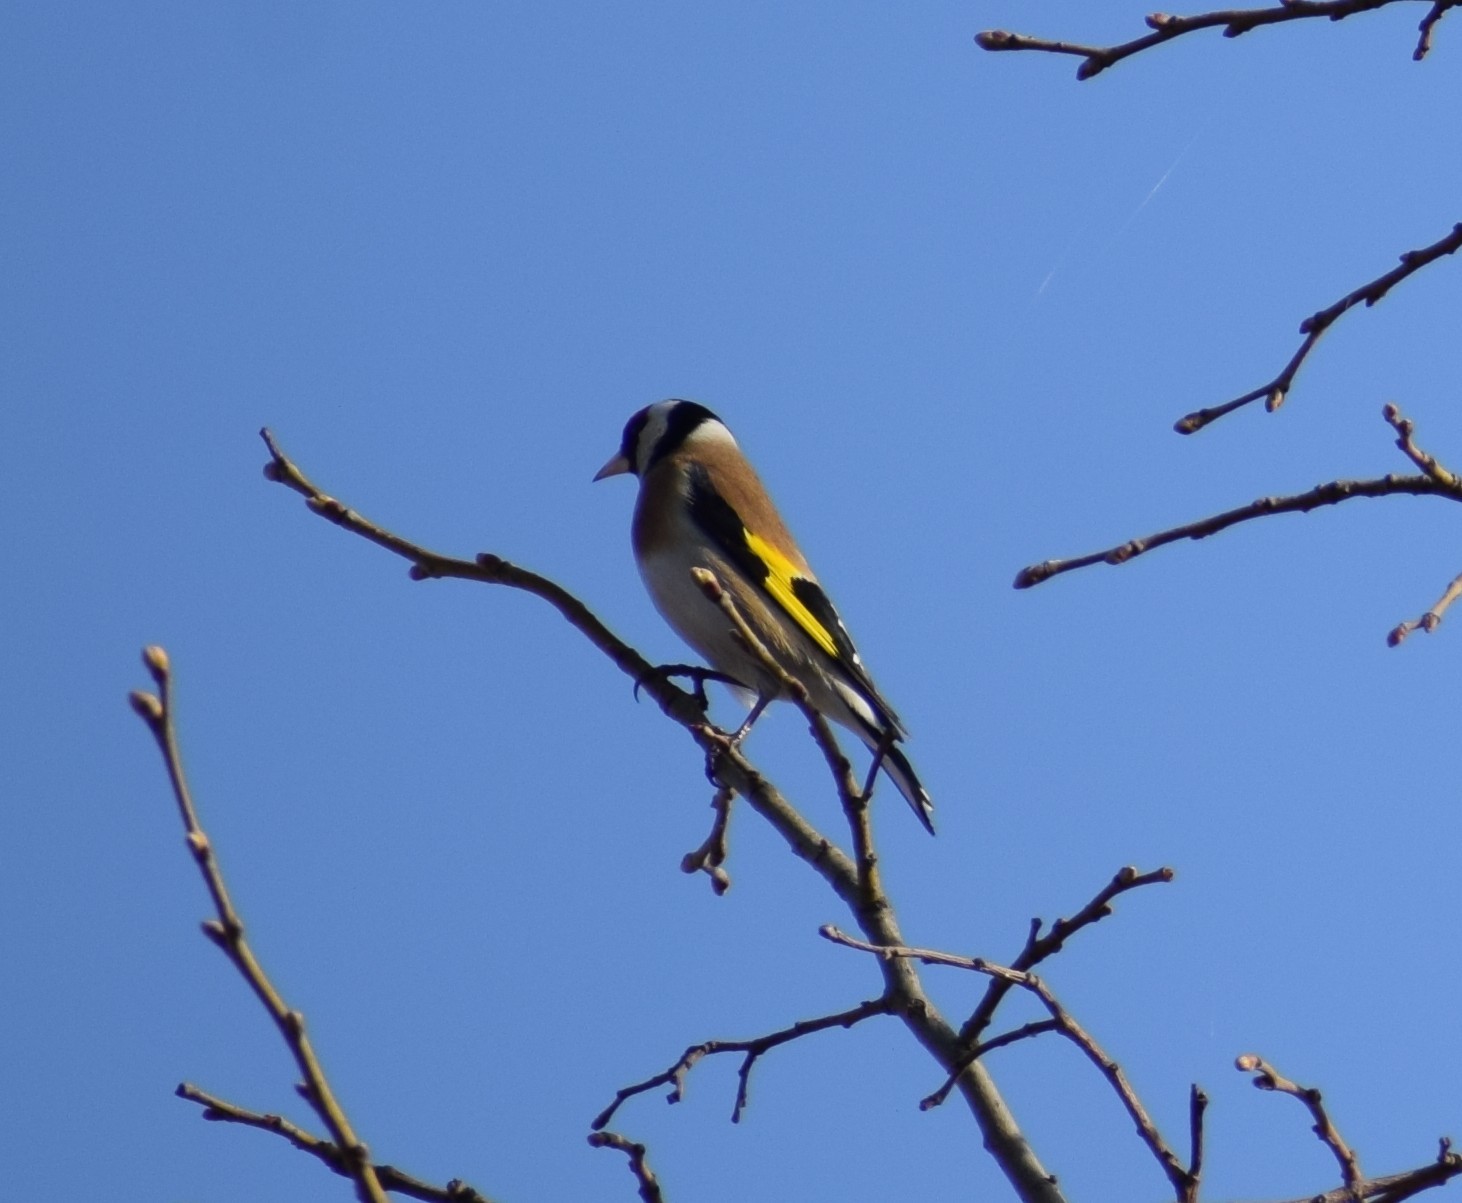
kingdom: Animalia
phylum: Chordata
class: Aves
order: Passeriformes
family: Fringillidae
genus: Carduelis
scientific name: Carduelis carduelis
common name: European goldfinch
